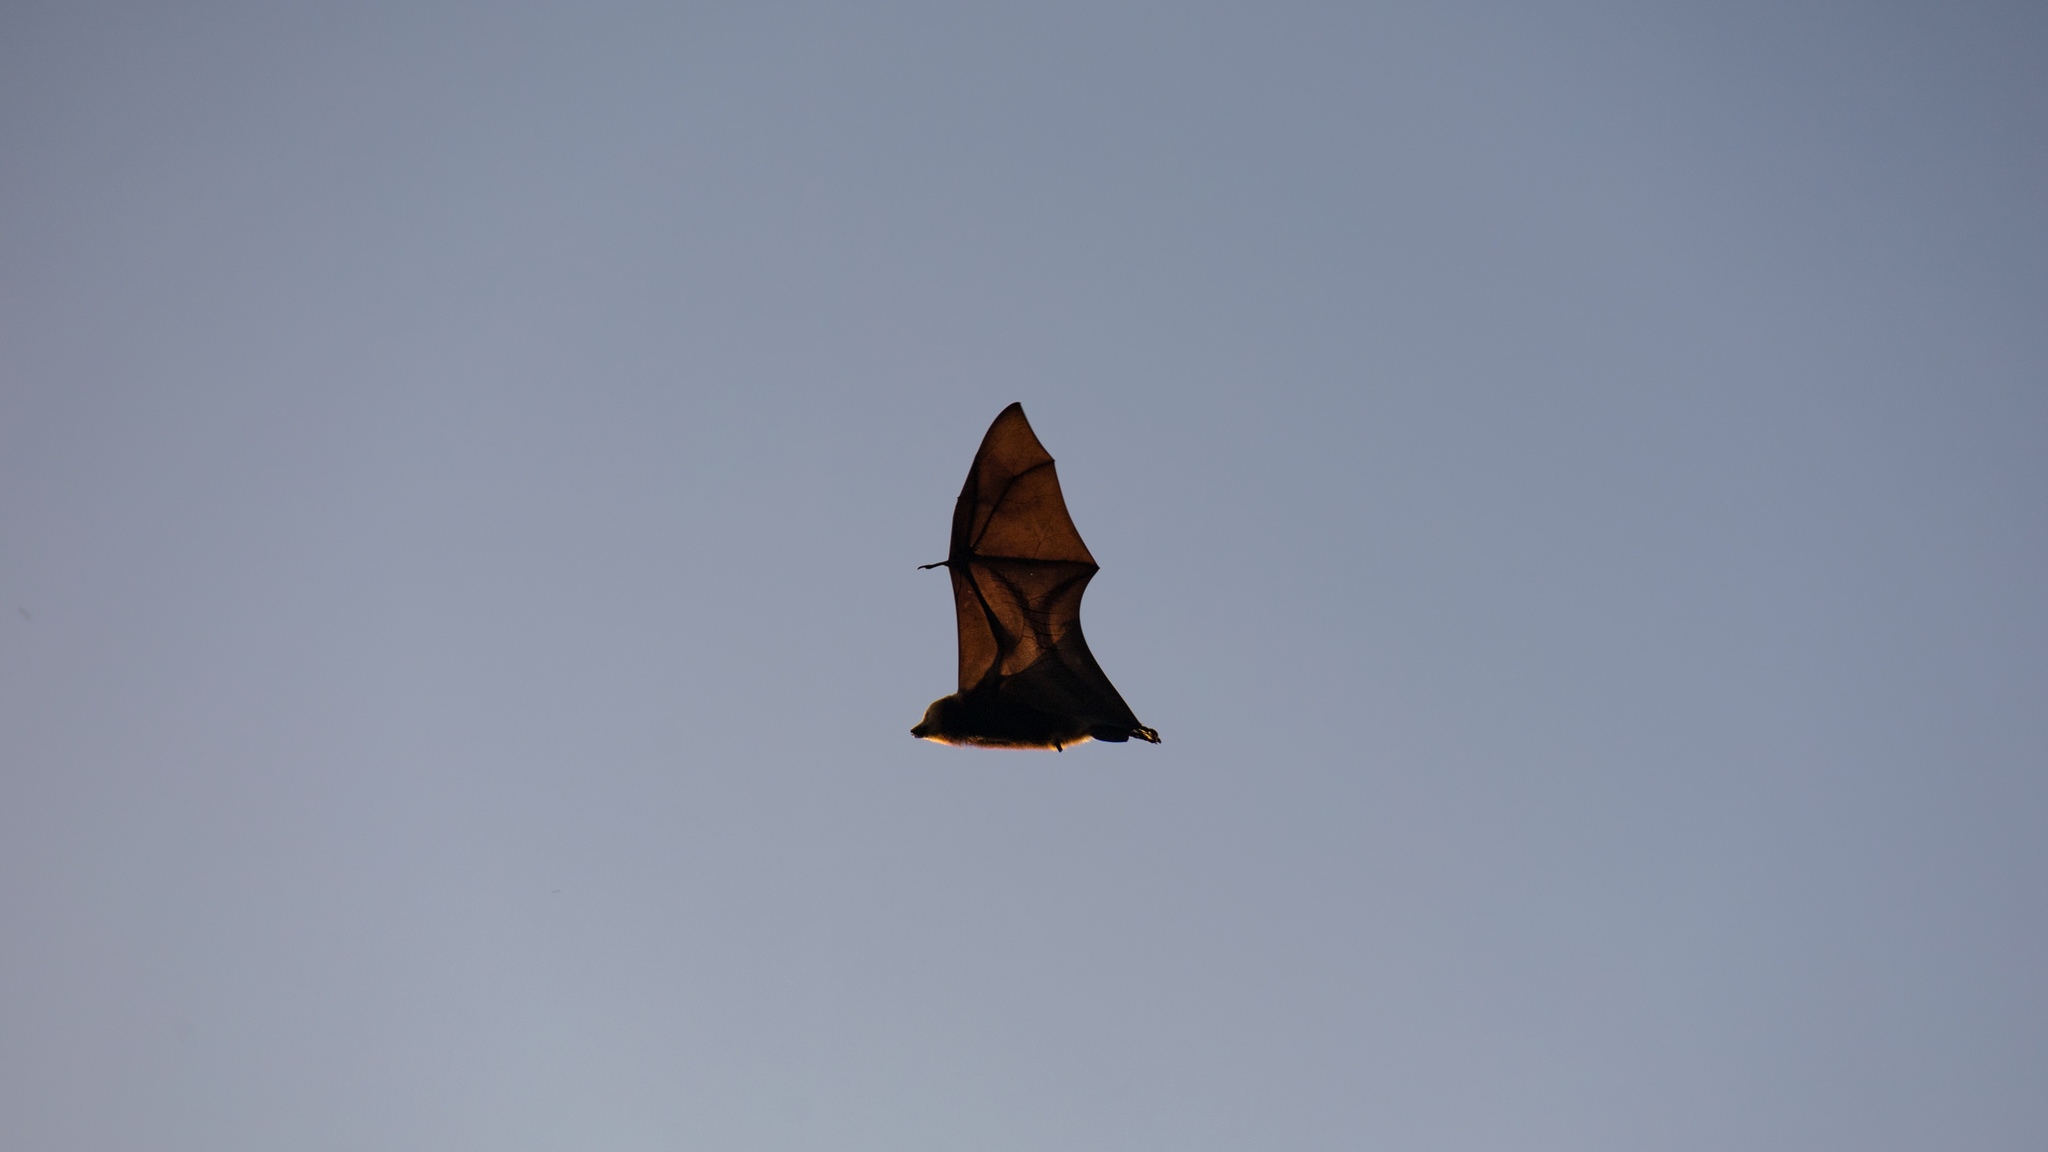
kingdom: Animalia
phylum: Chordata
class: Mammalia
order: Chiroptera
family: Pteropodidae
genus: Pteropus
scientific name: Pteropus niger
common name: Greater mascarene flying fox
